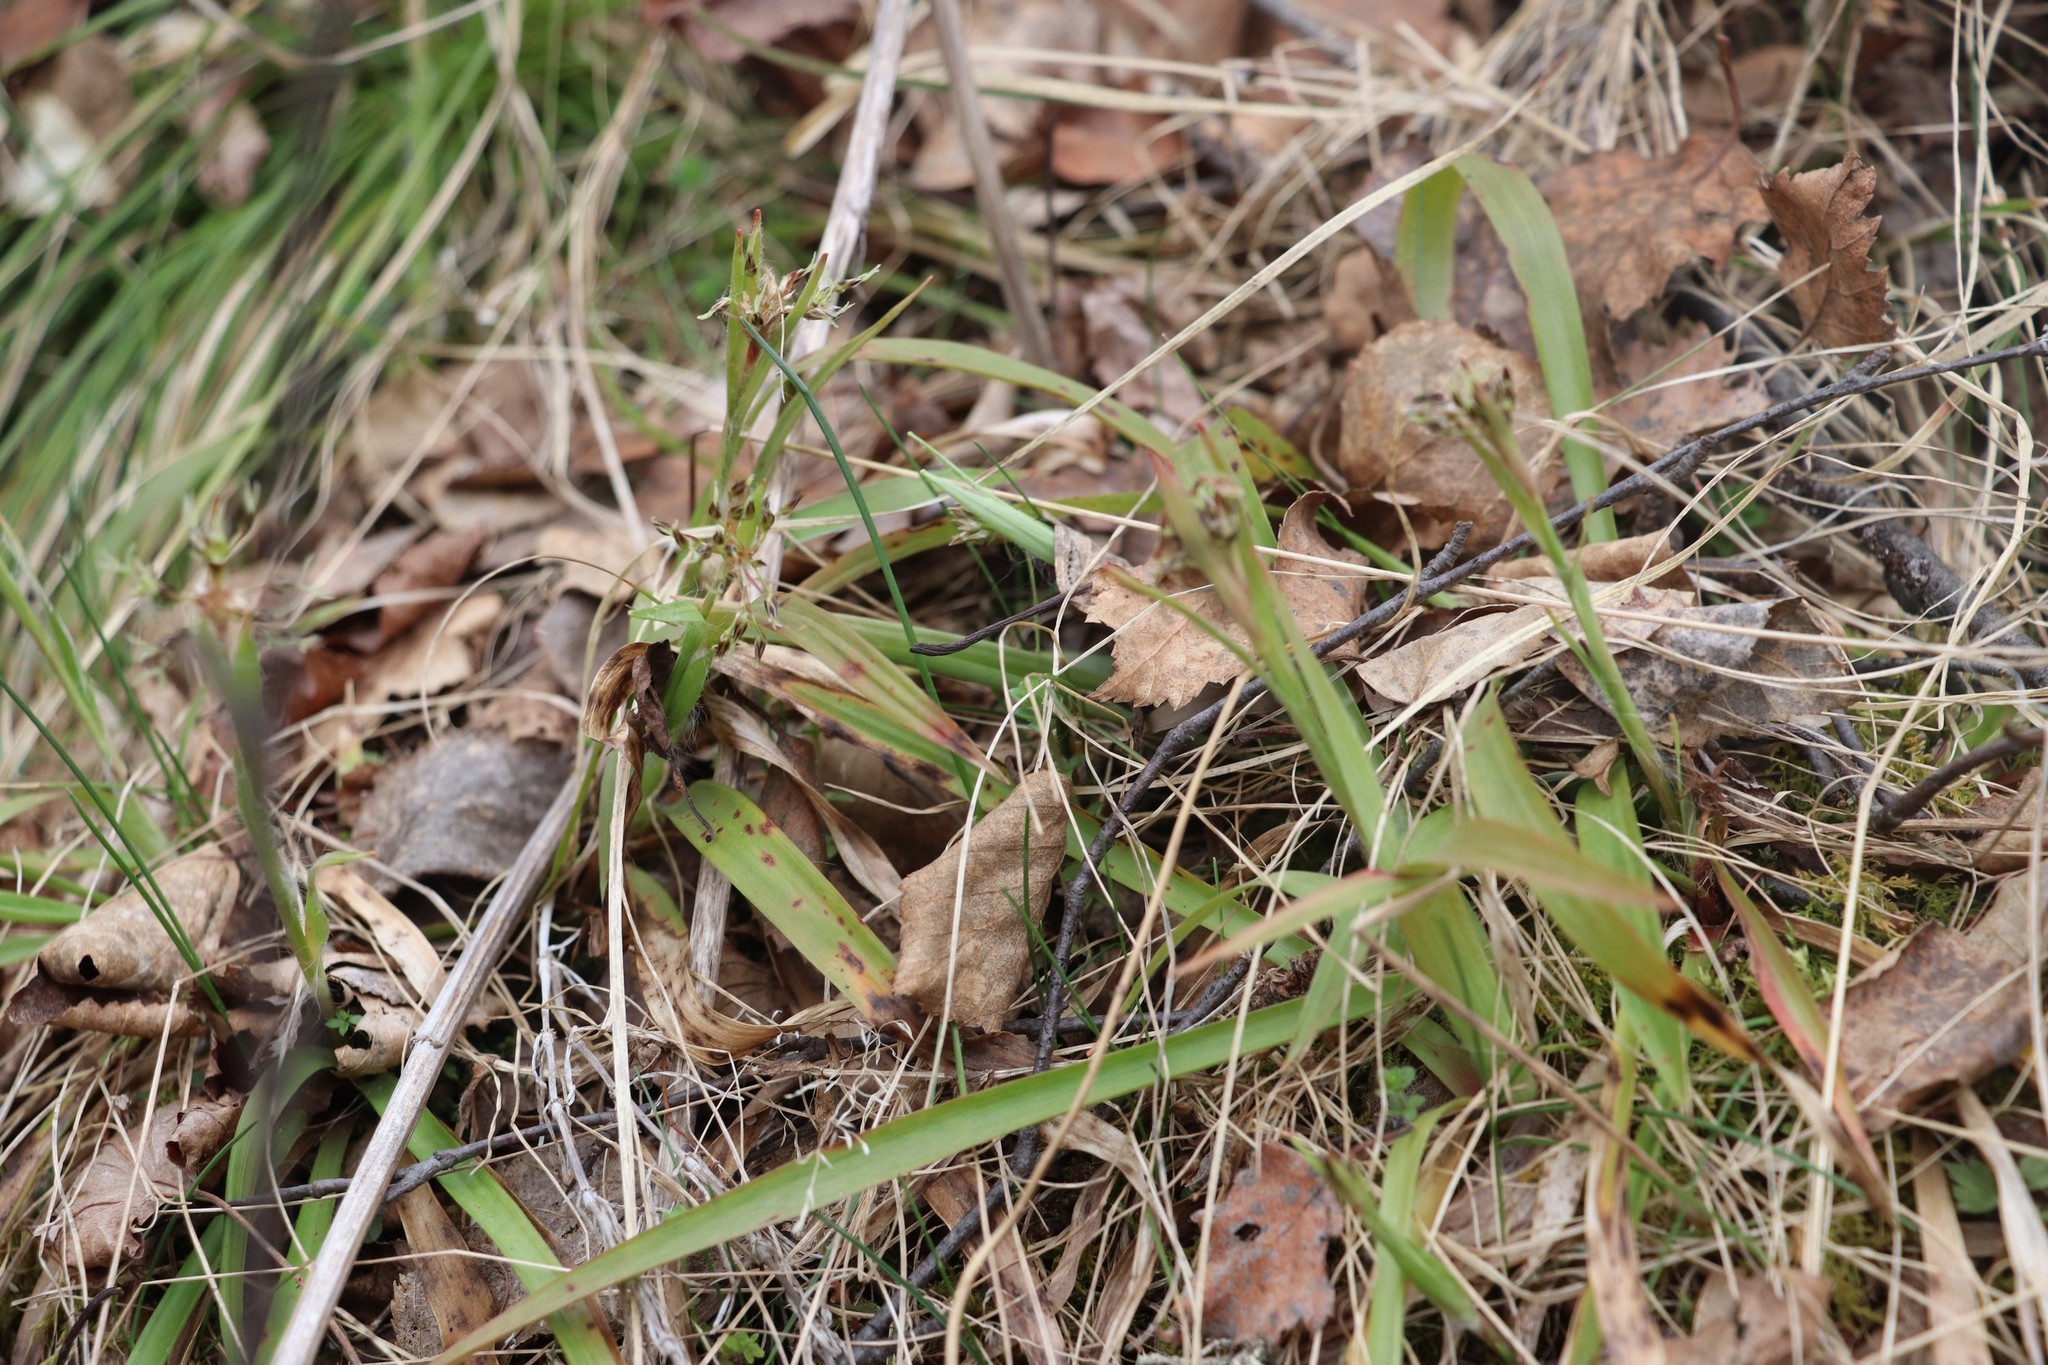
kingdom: Plantae
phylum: Tracheophyta
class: Liliopsida
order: Poales
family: Juncaceae
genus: Luzula
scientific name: Luzula pilosa
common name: Hairy wood-rush
